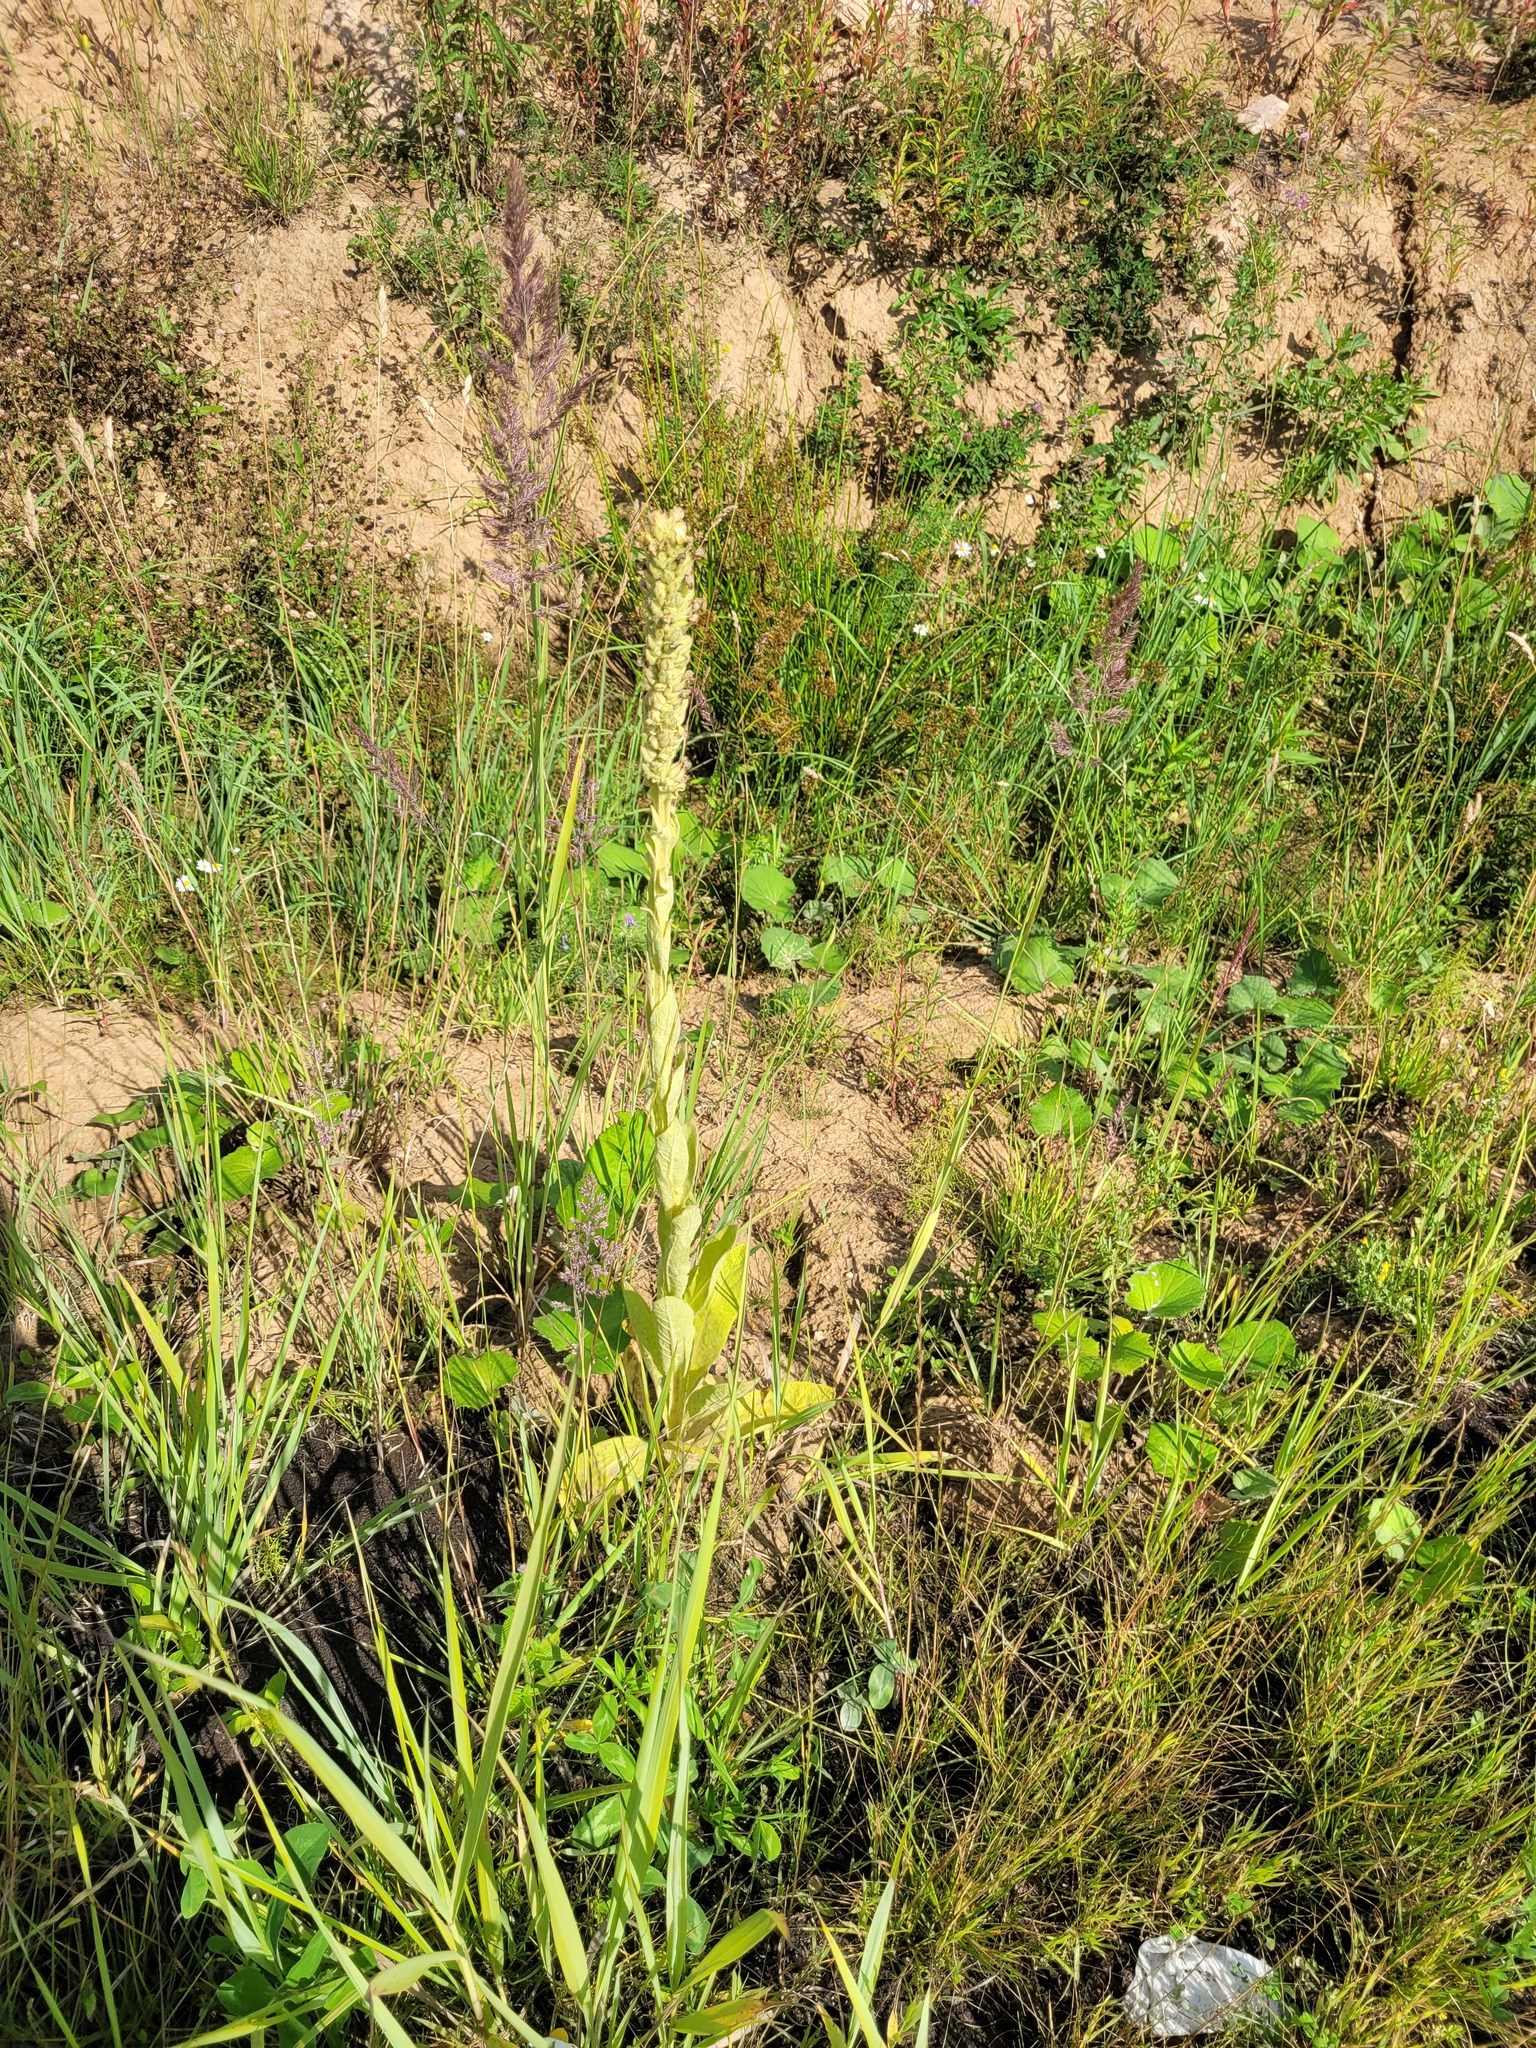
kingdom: Plantae
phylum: Tracheophyta
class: Magnoliopsida
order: Lamiales
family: Scrophulariaceae
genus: Verbascum
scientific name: Verbascum thapsus
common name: Common mullein
